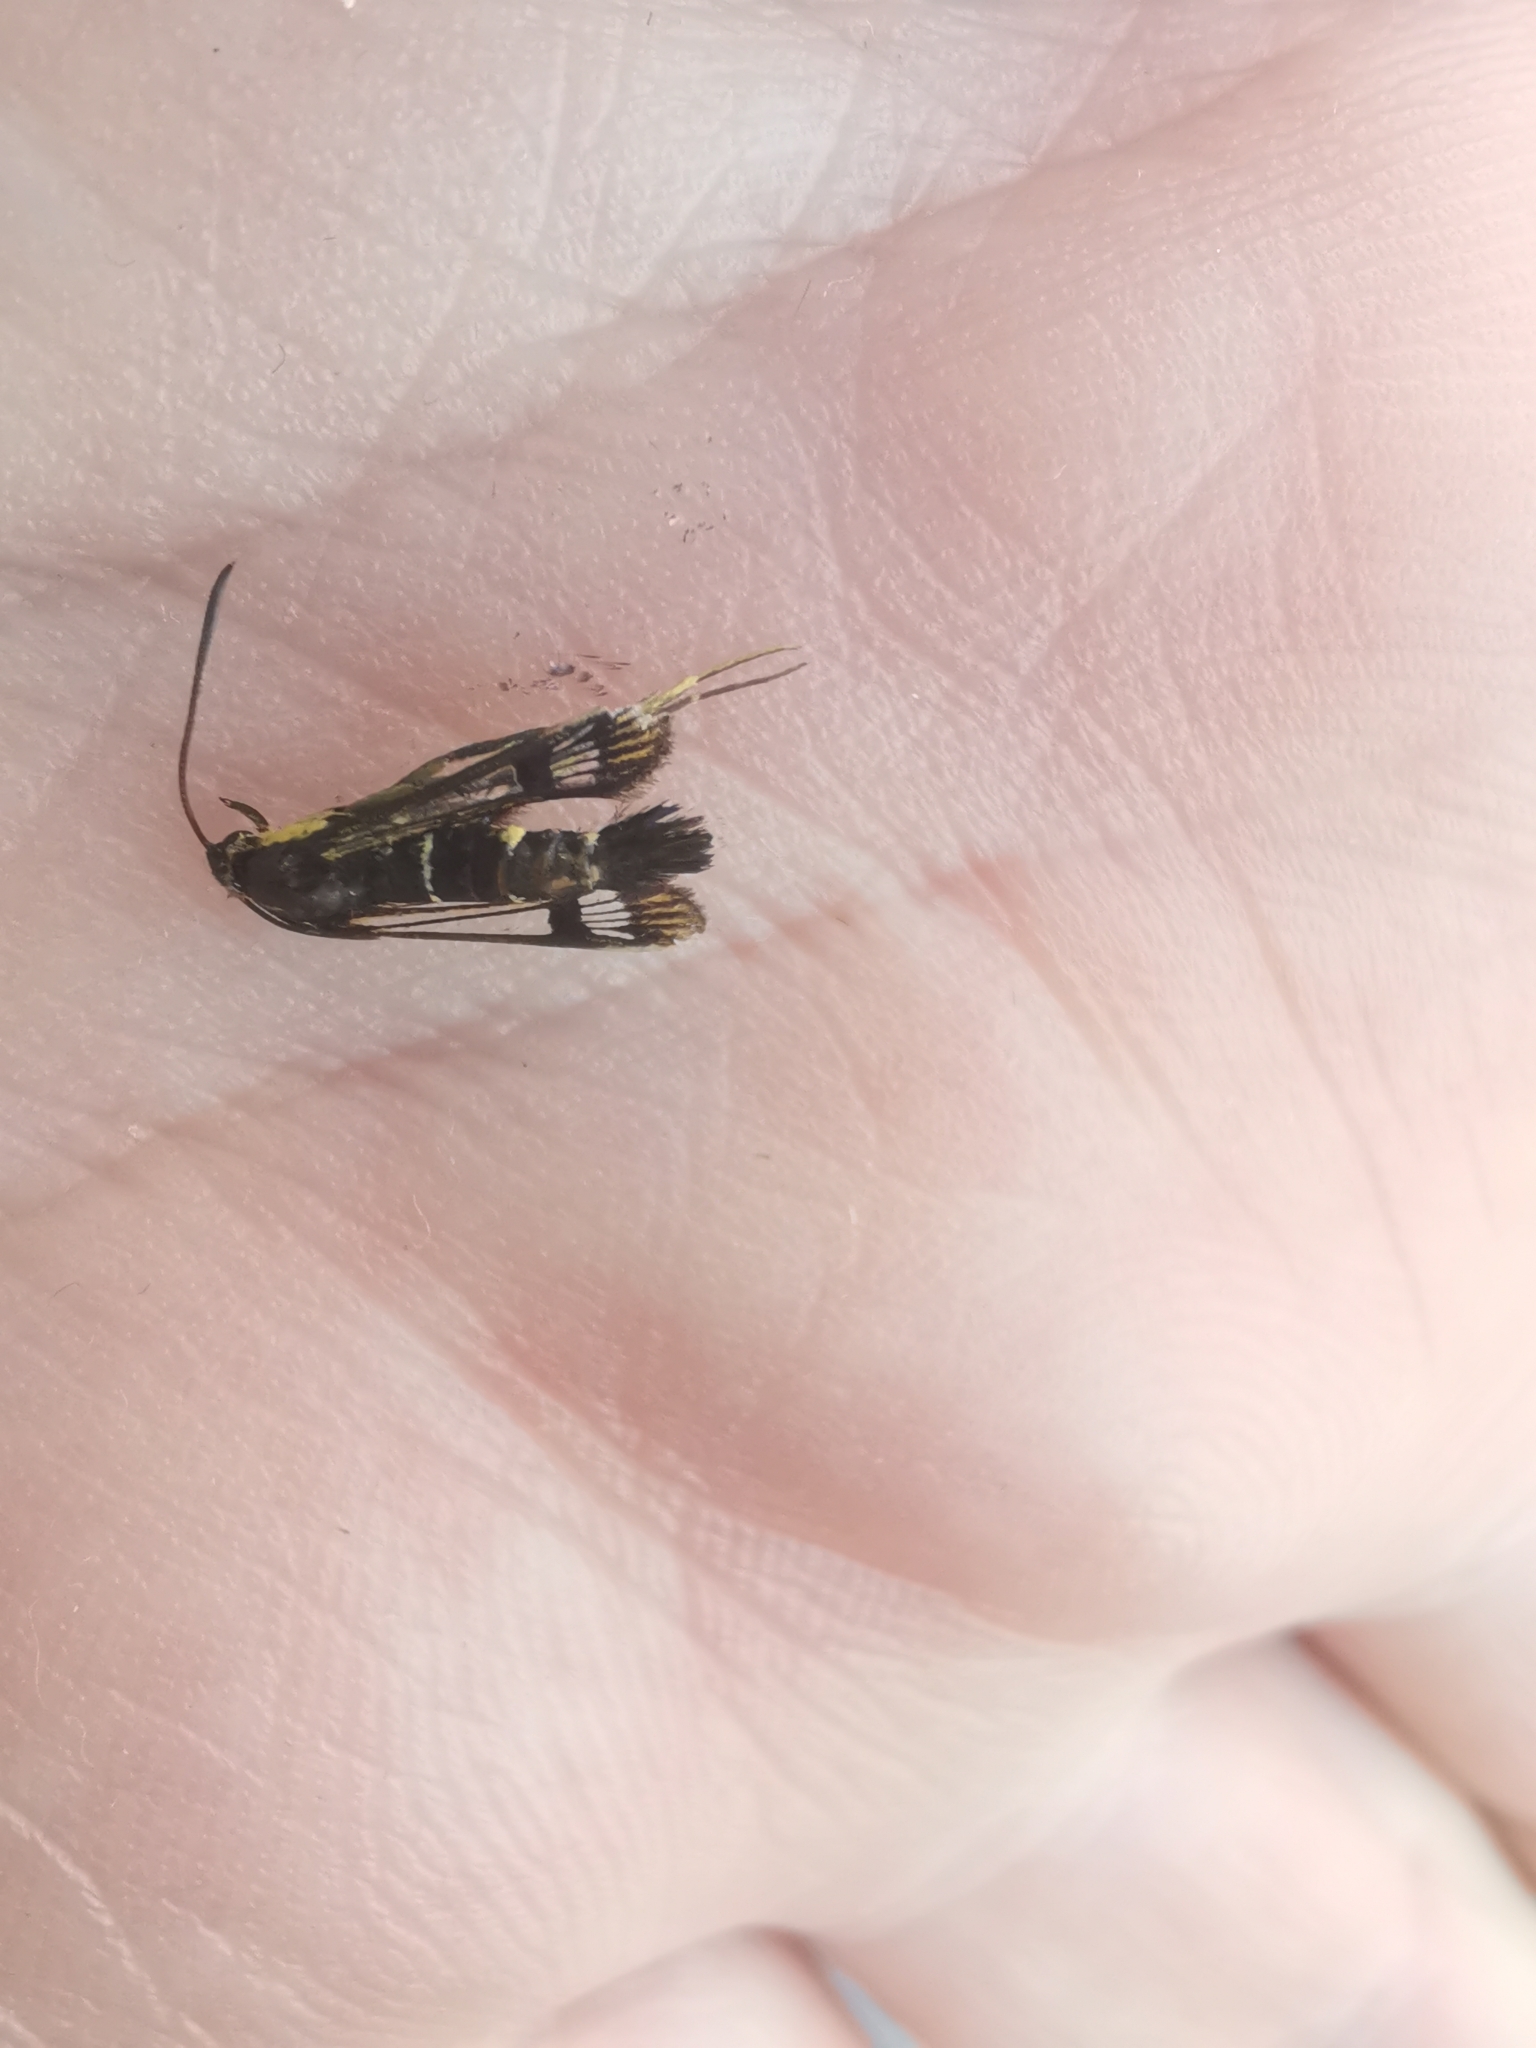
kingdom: Animalia
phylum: Arthropoda
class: Insecta
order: Lepidoptera
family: Sesiidae
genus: Synanthedon
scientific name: Synanthedon tipuliformis
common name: Currant clearwing
